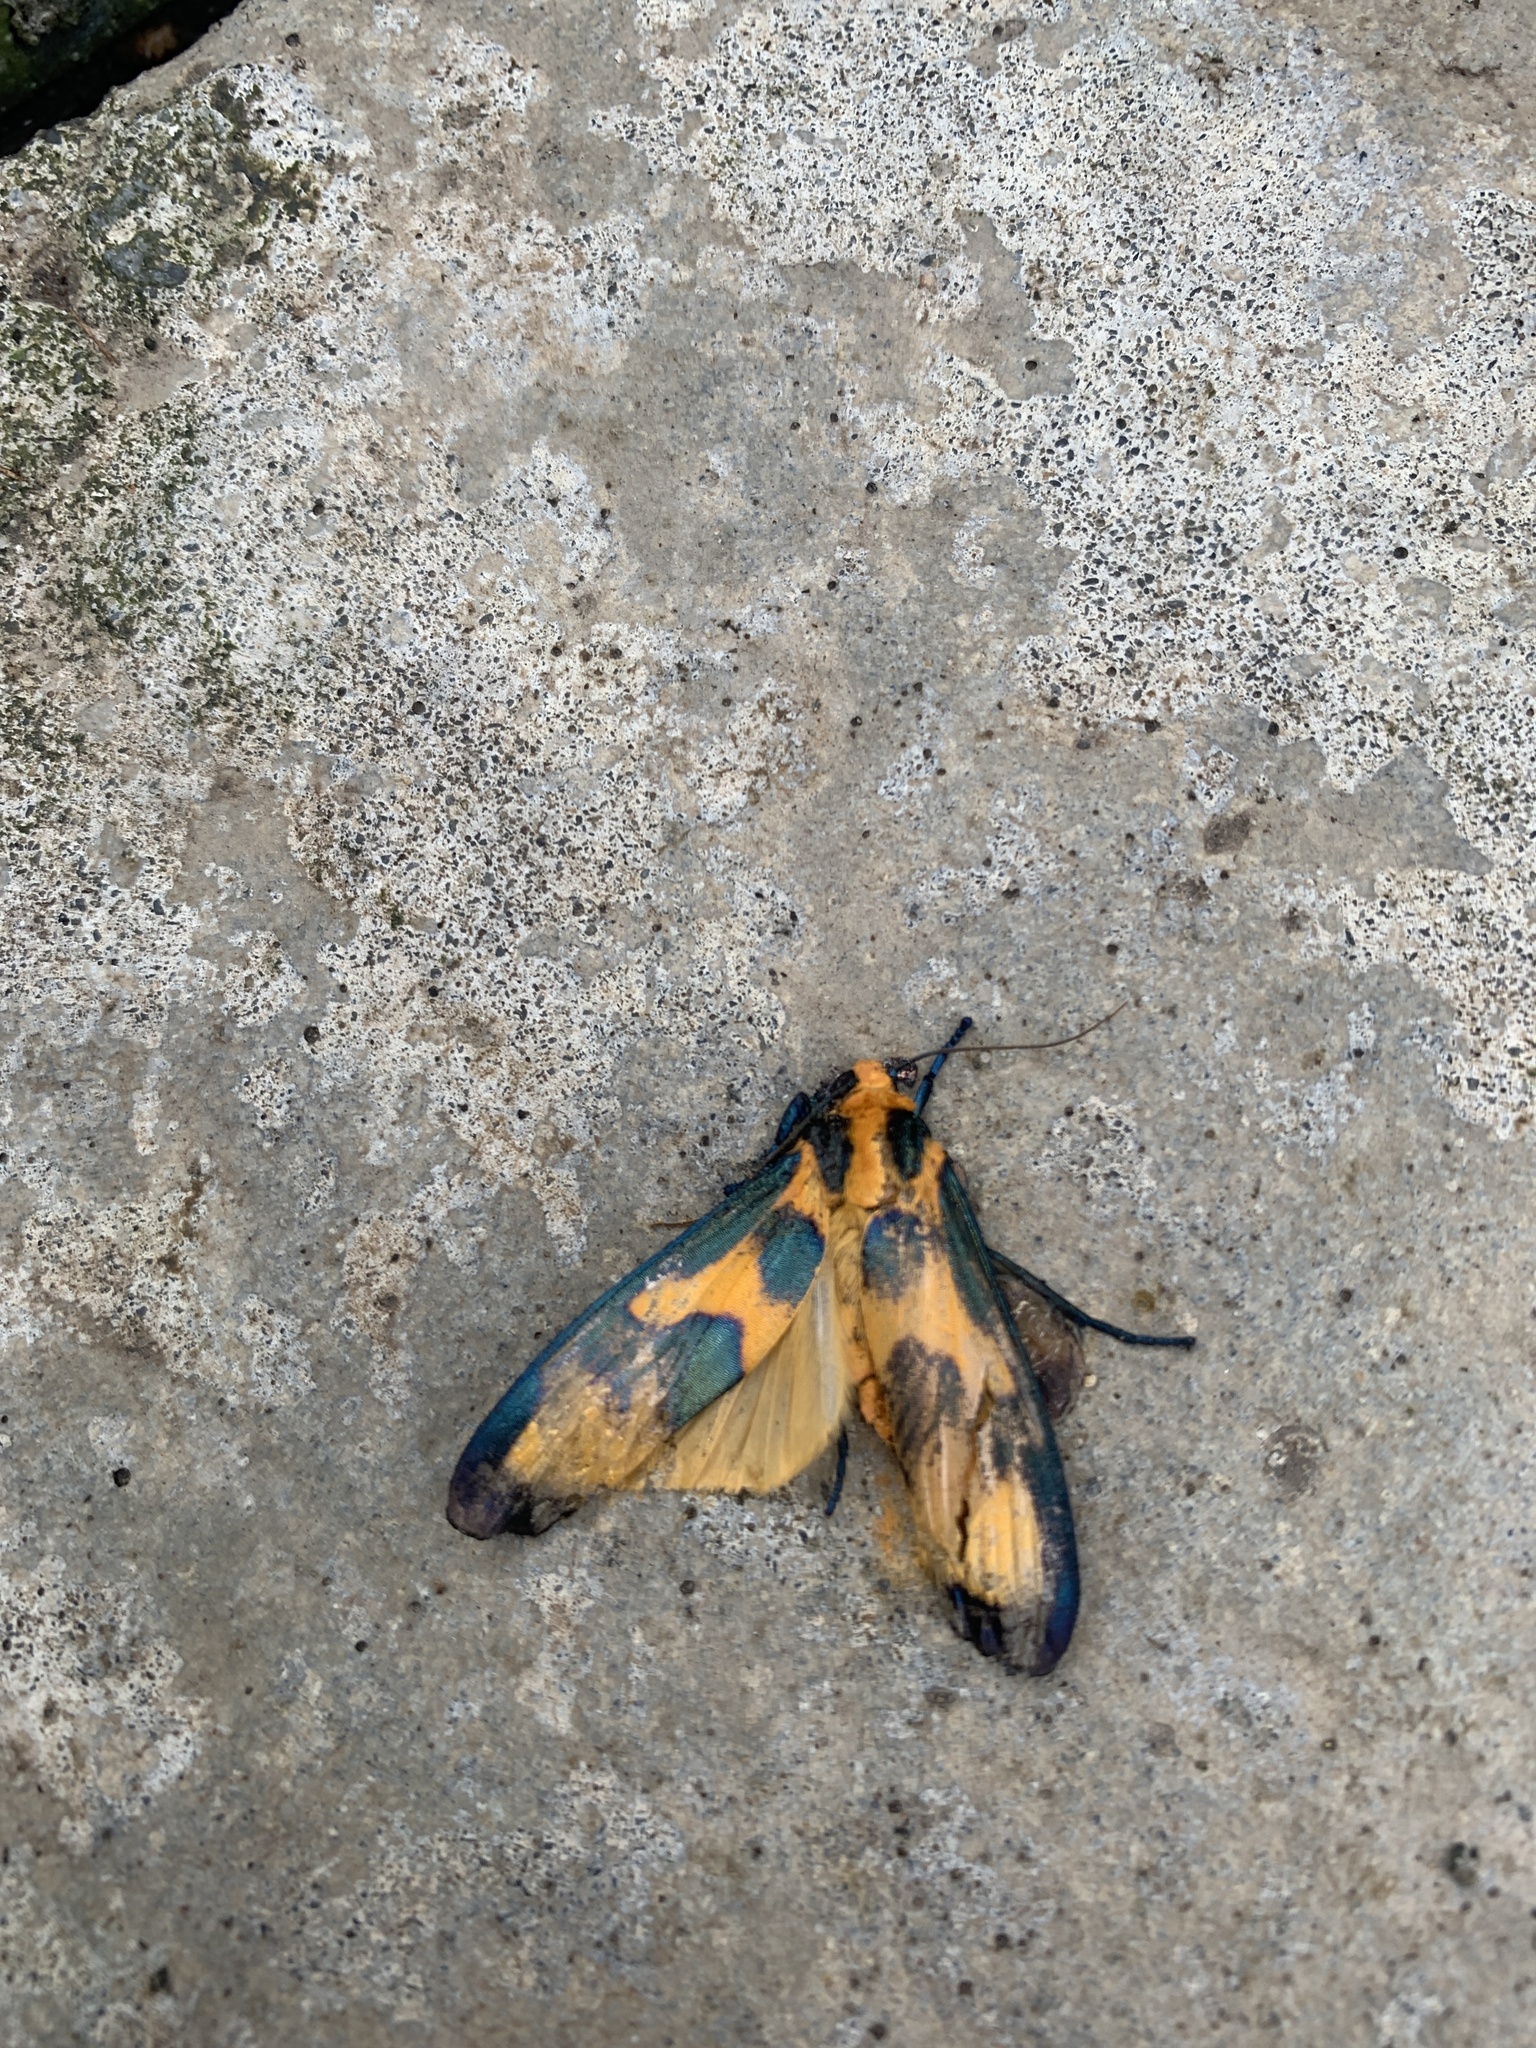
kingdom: Animalia
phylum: Arthropoda
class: Insecta
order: Lepidoptera
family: Erebidae
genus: Chrysaeglia
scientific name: Chrysaeglia magnifica
